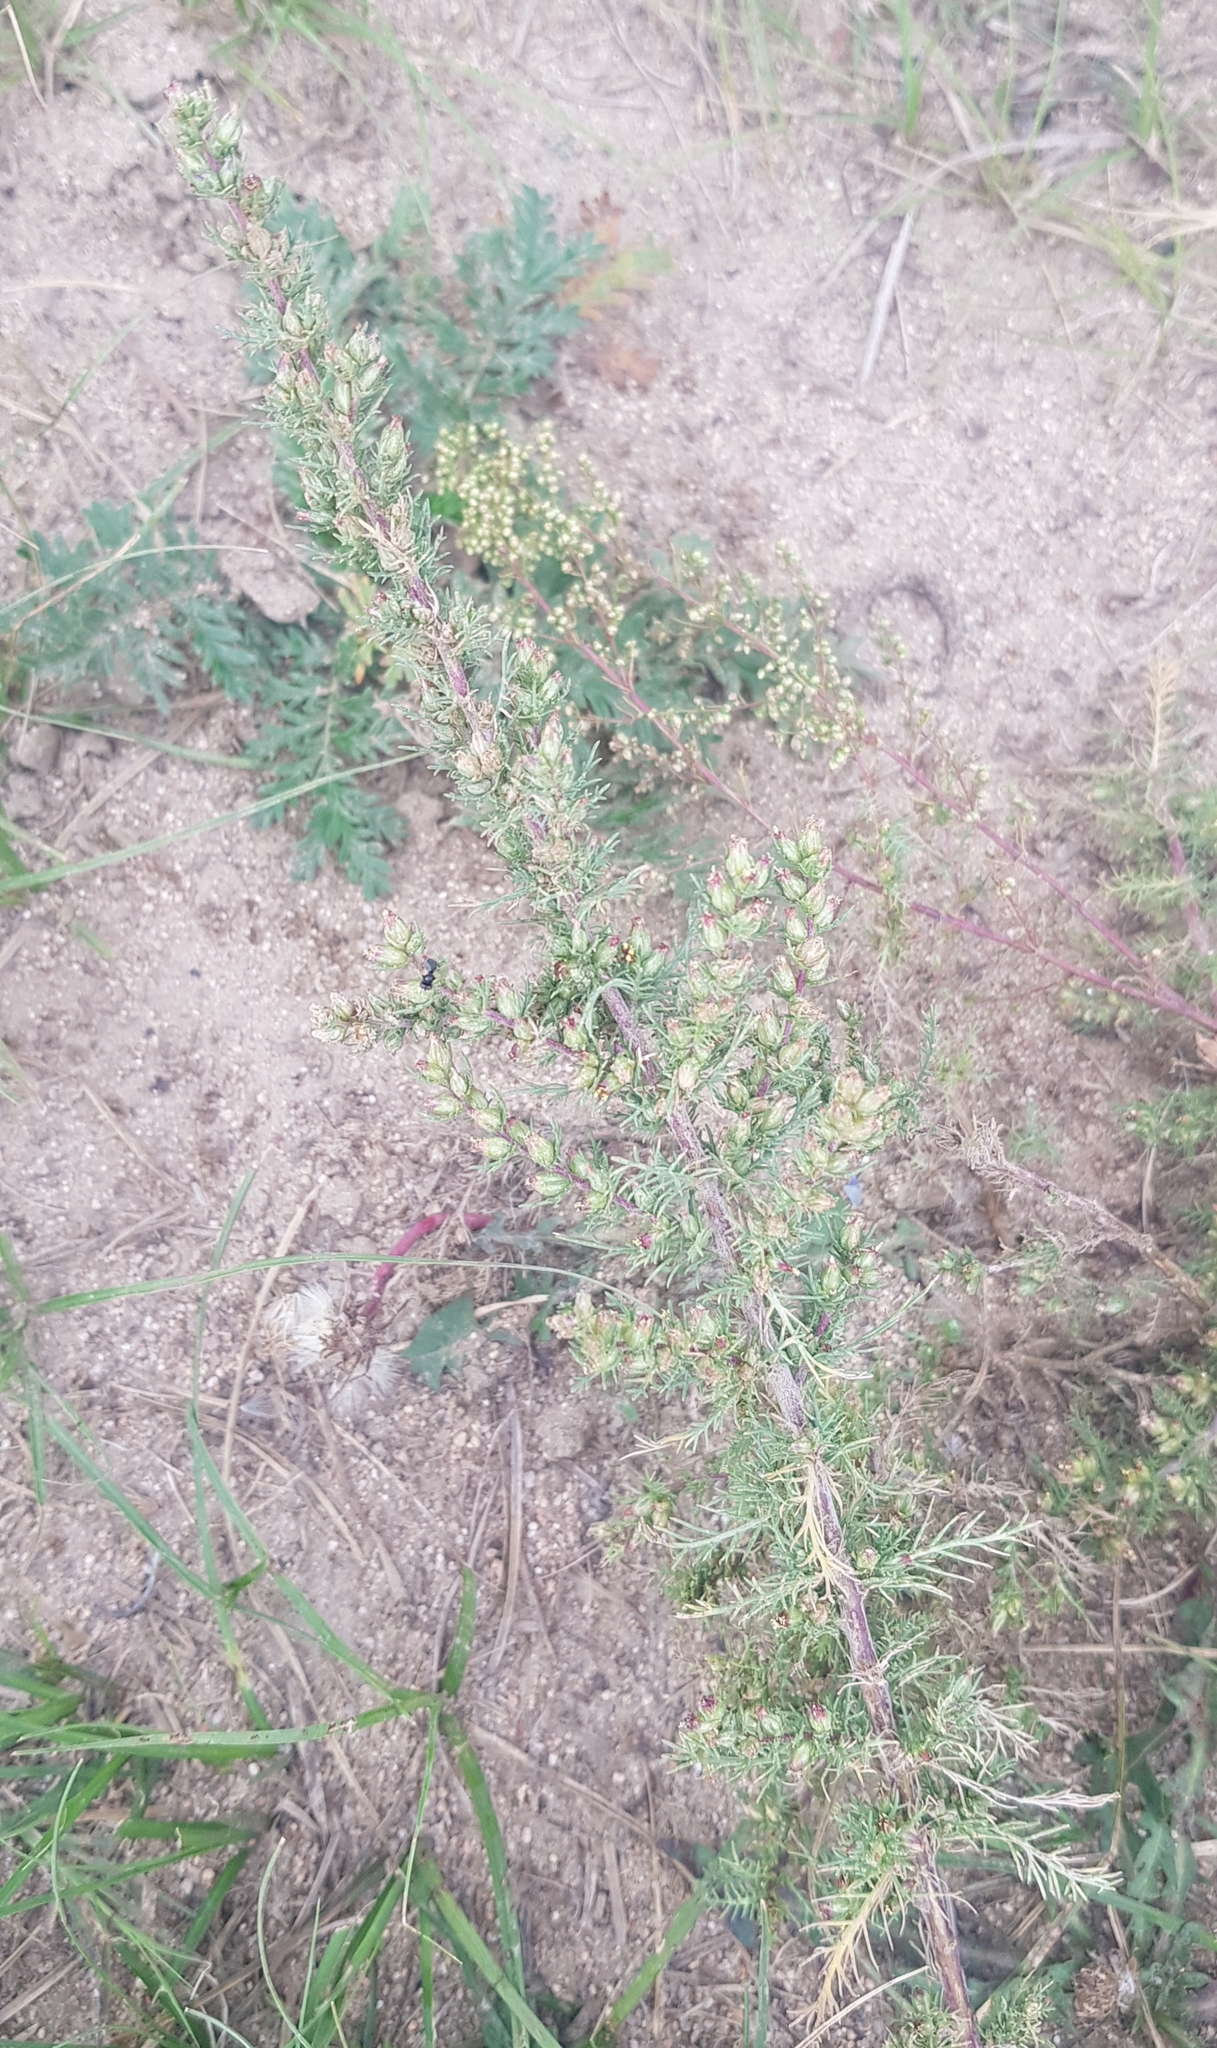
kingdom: Plantae
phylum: Tracheophyta
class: Magnoliopsida
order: Asterales
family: Asteraceae
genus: Neopallasia
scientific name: Neopallasia pectinata
